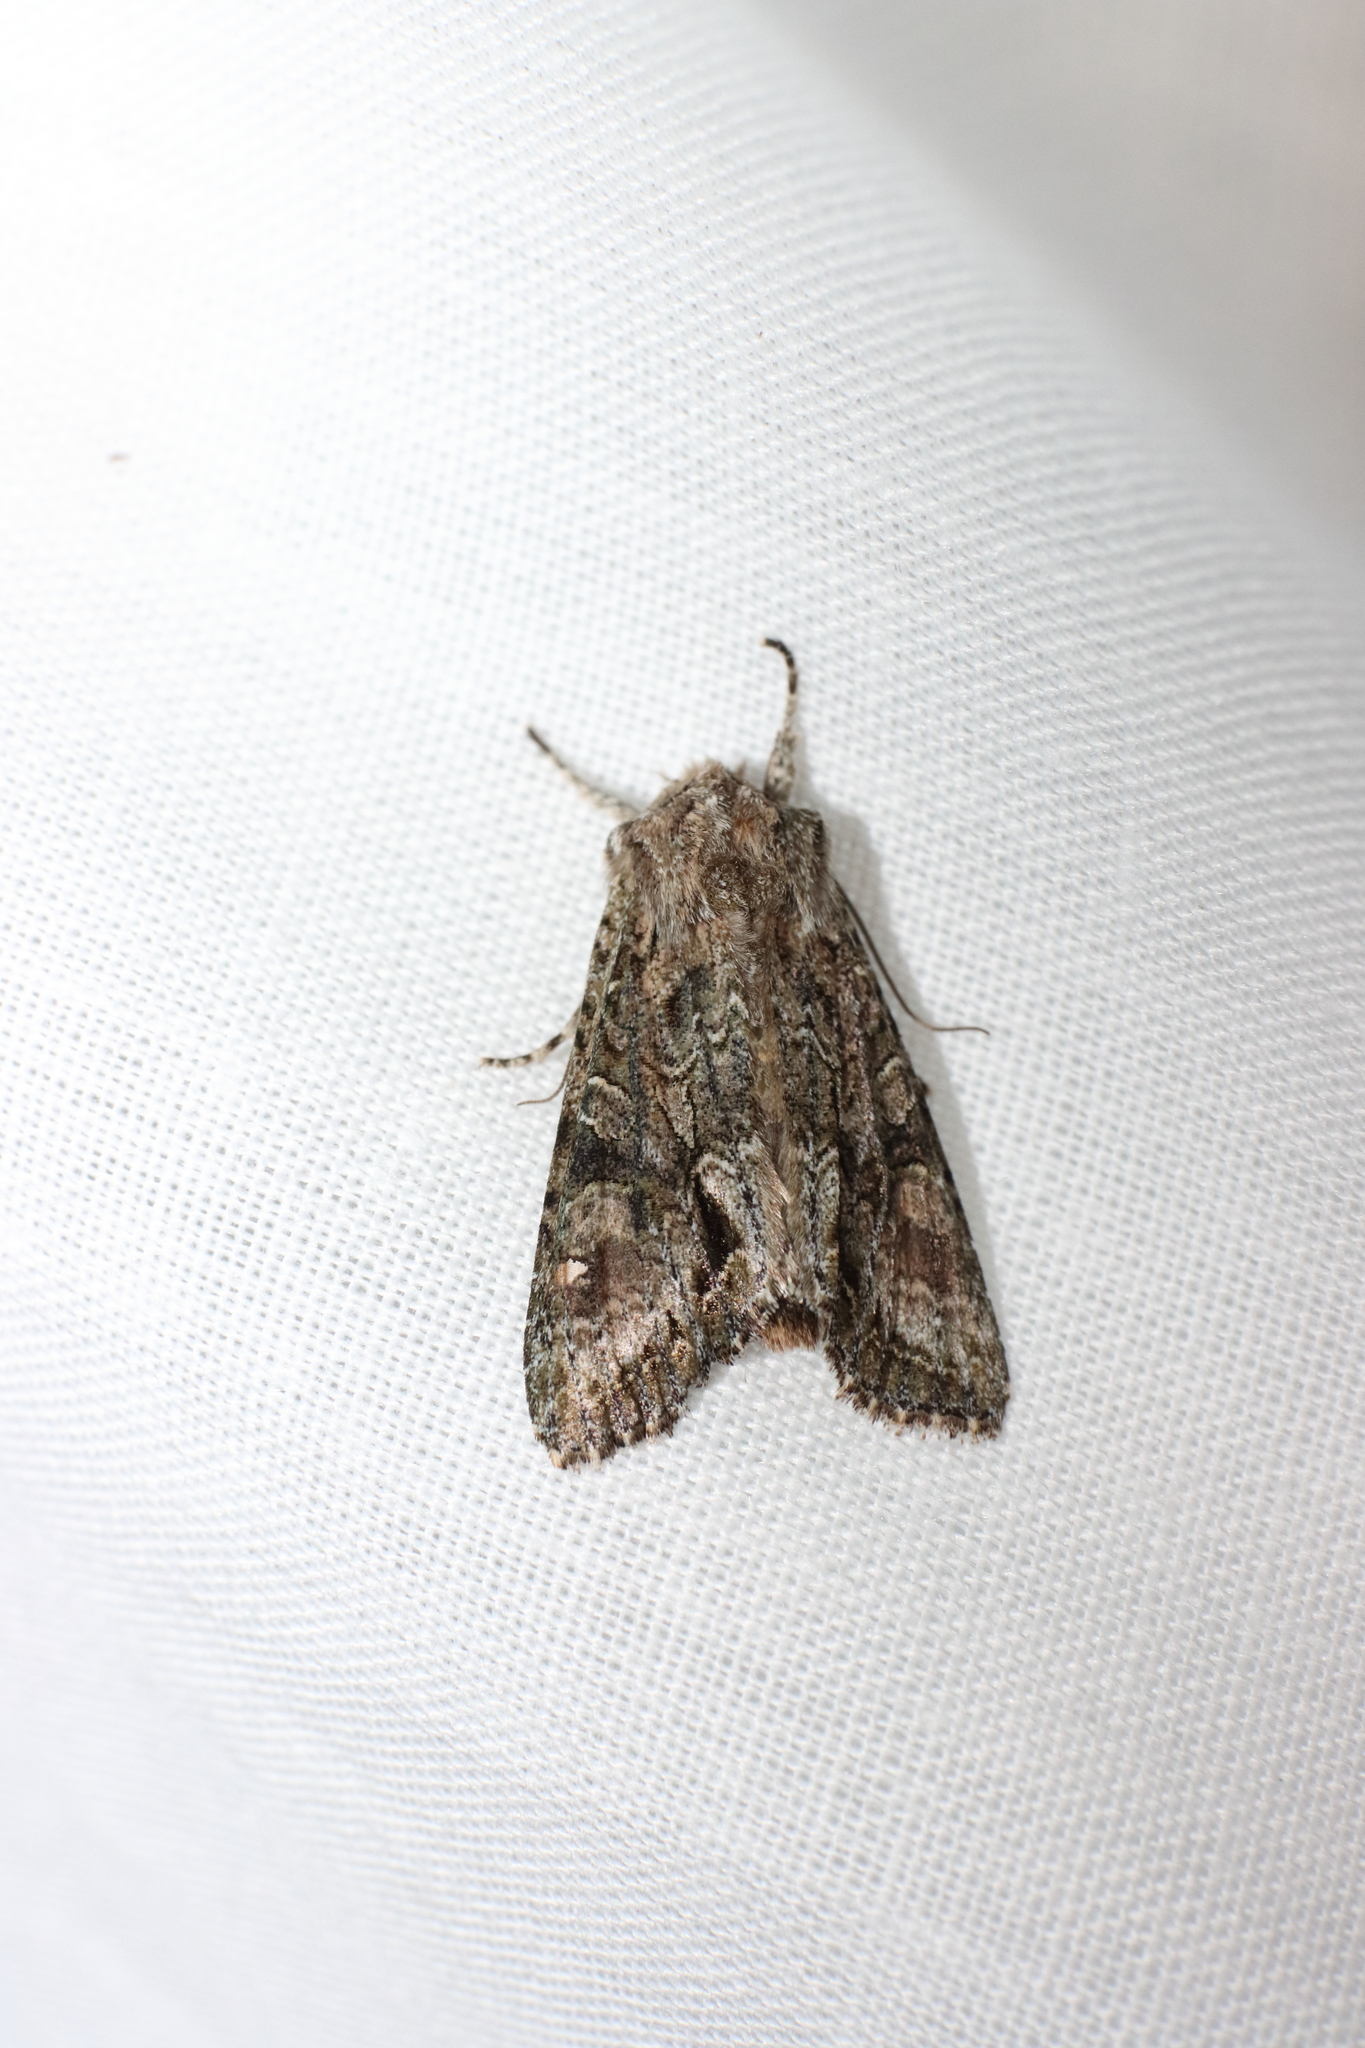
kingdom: Animalia
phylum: Arthropoda
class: Insecta
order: Lepidoptera
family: Noctuidae
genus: Ichneutica
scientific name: Ichneutica mutans
